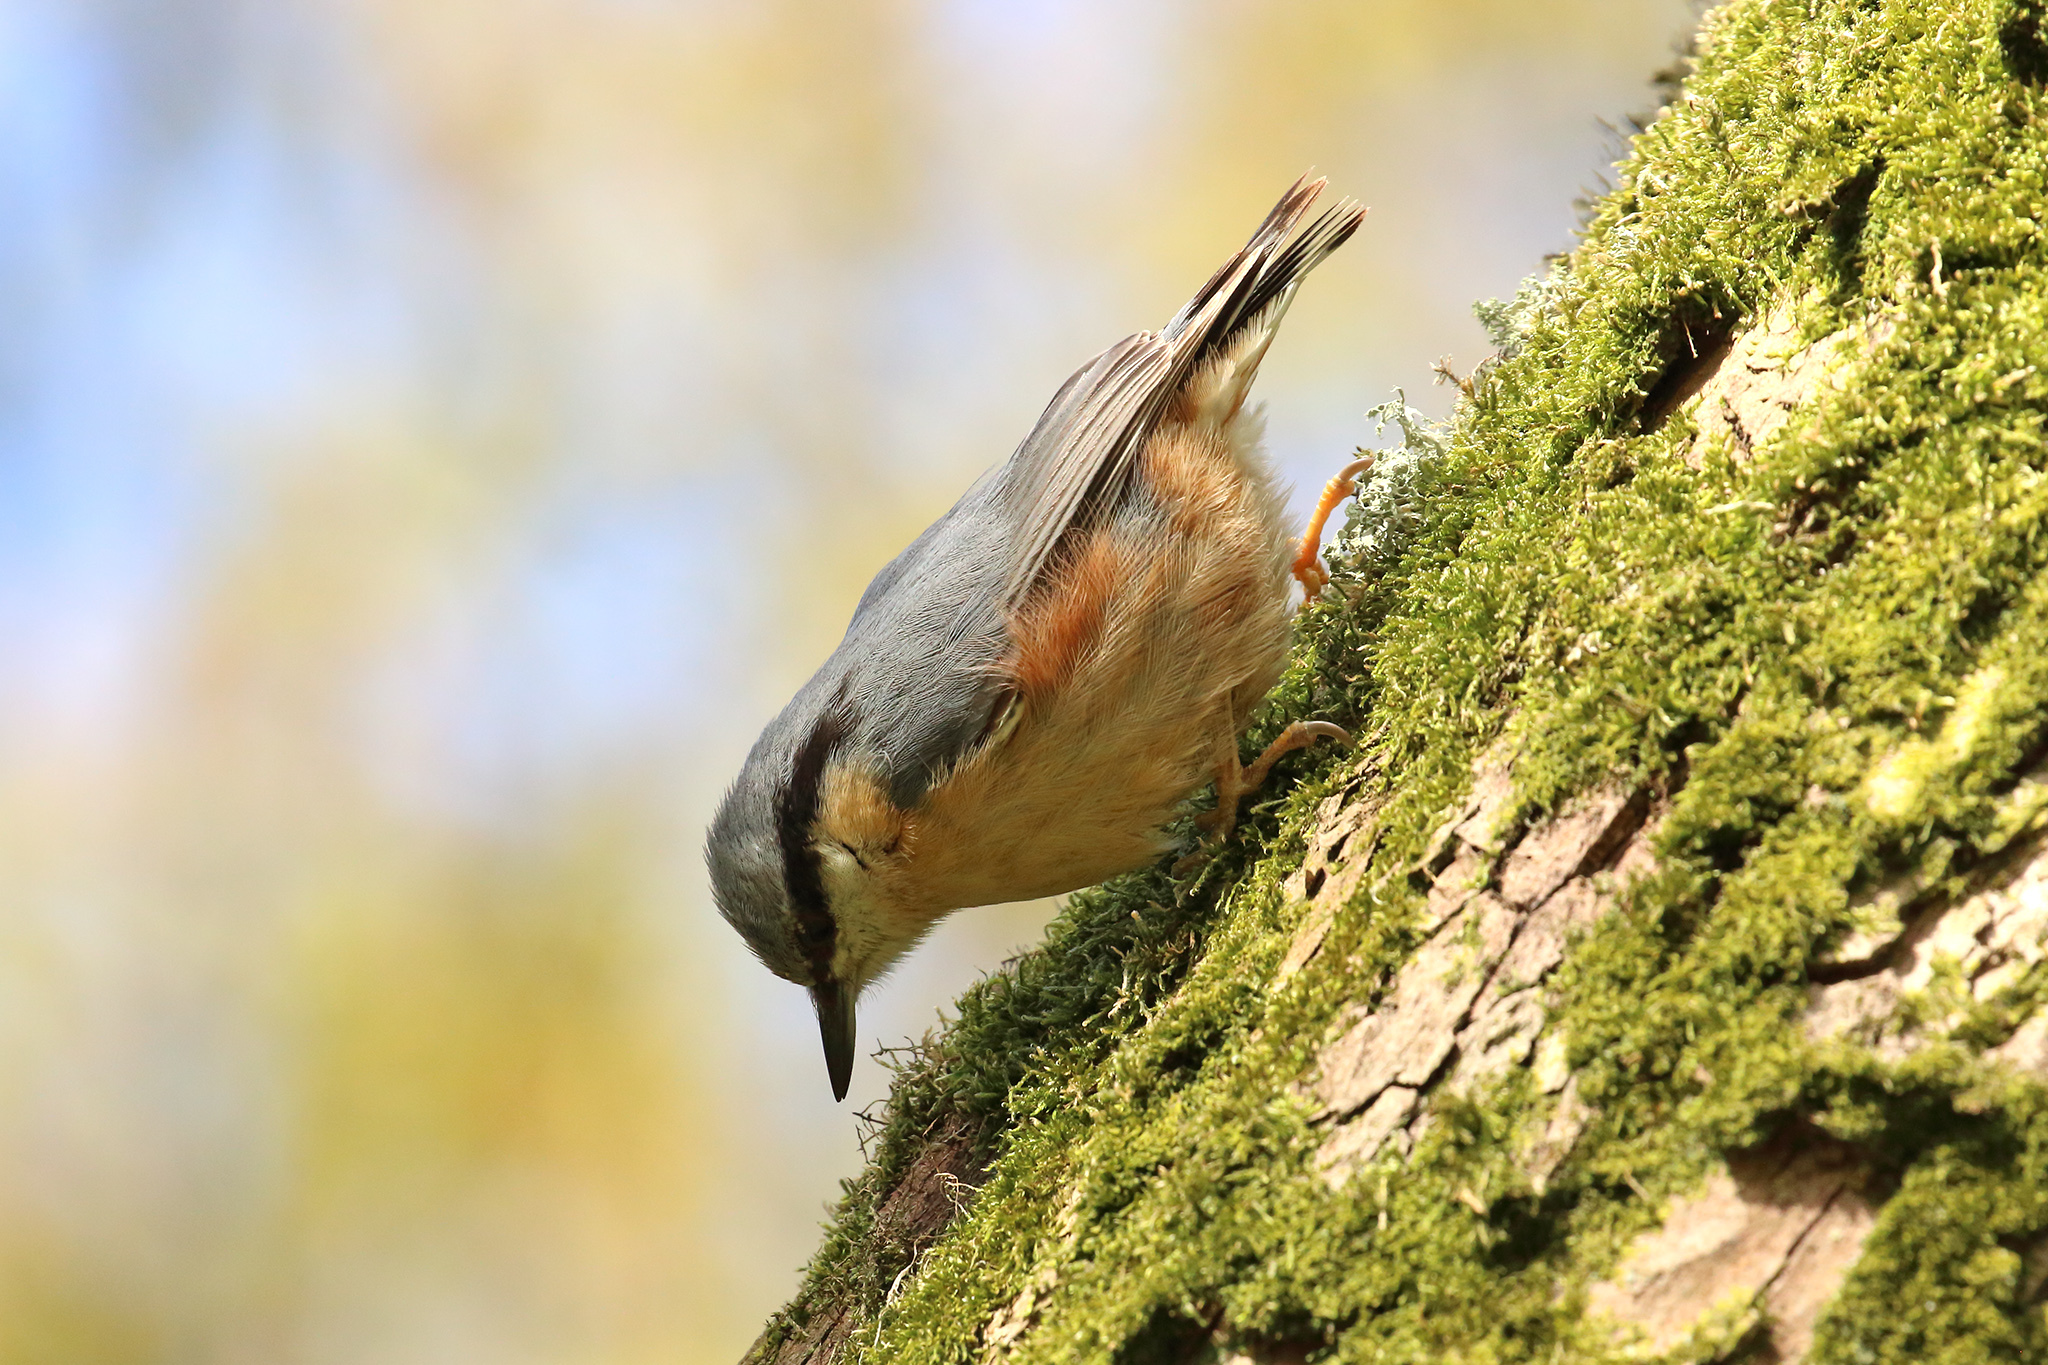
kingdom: Animalia
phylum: Chordata
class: Aves
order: Passeriformes
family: Sittidae
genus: Sitta
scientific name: Sitta europaea
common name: Eurasian nuthatch
